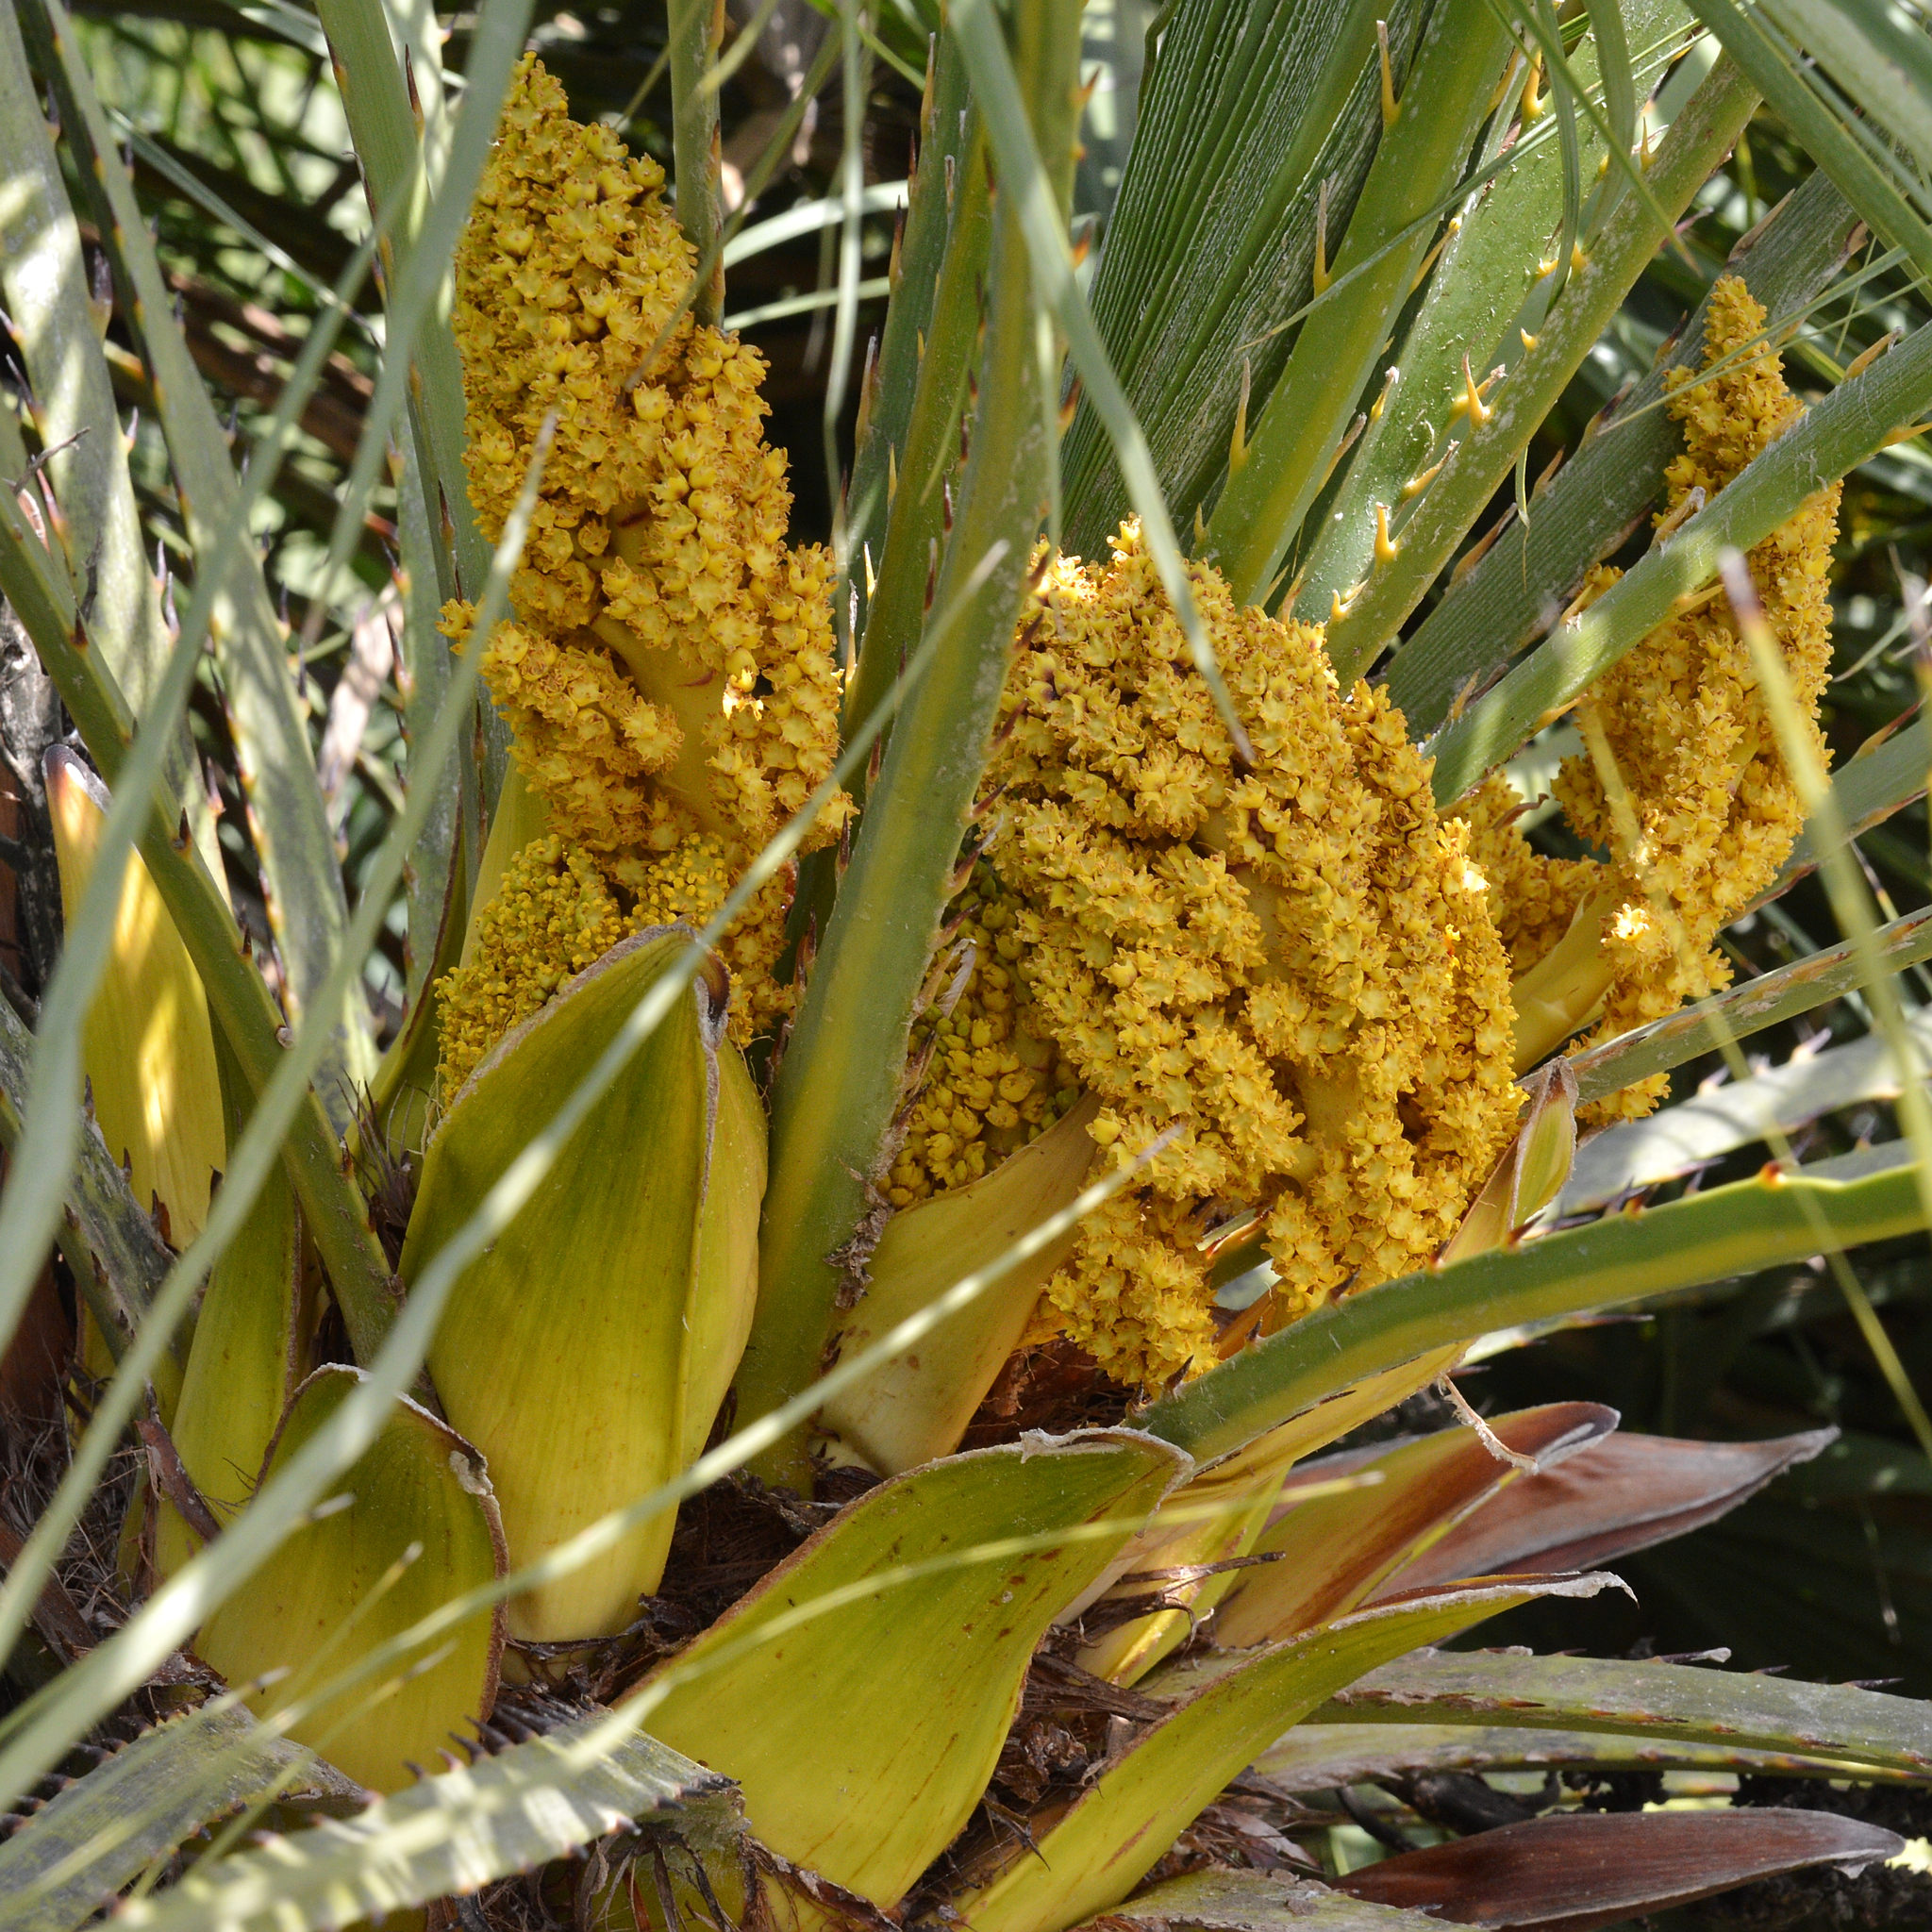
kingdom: Plantae
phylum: Tracheophyta
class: Liliopsida
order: Arecales
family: Arecaceae
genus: Chamaerops
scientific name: Chamaerops humilis
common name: Dwarf fan palm
